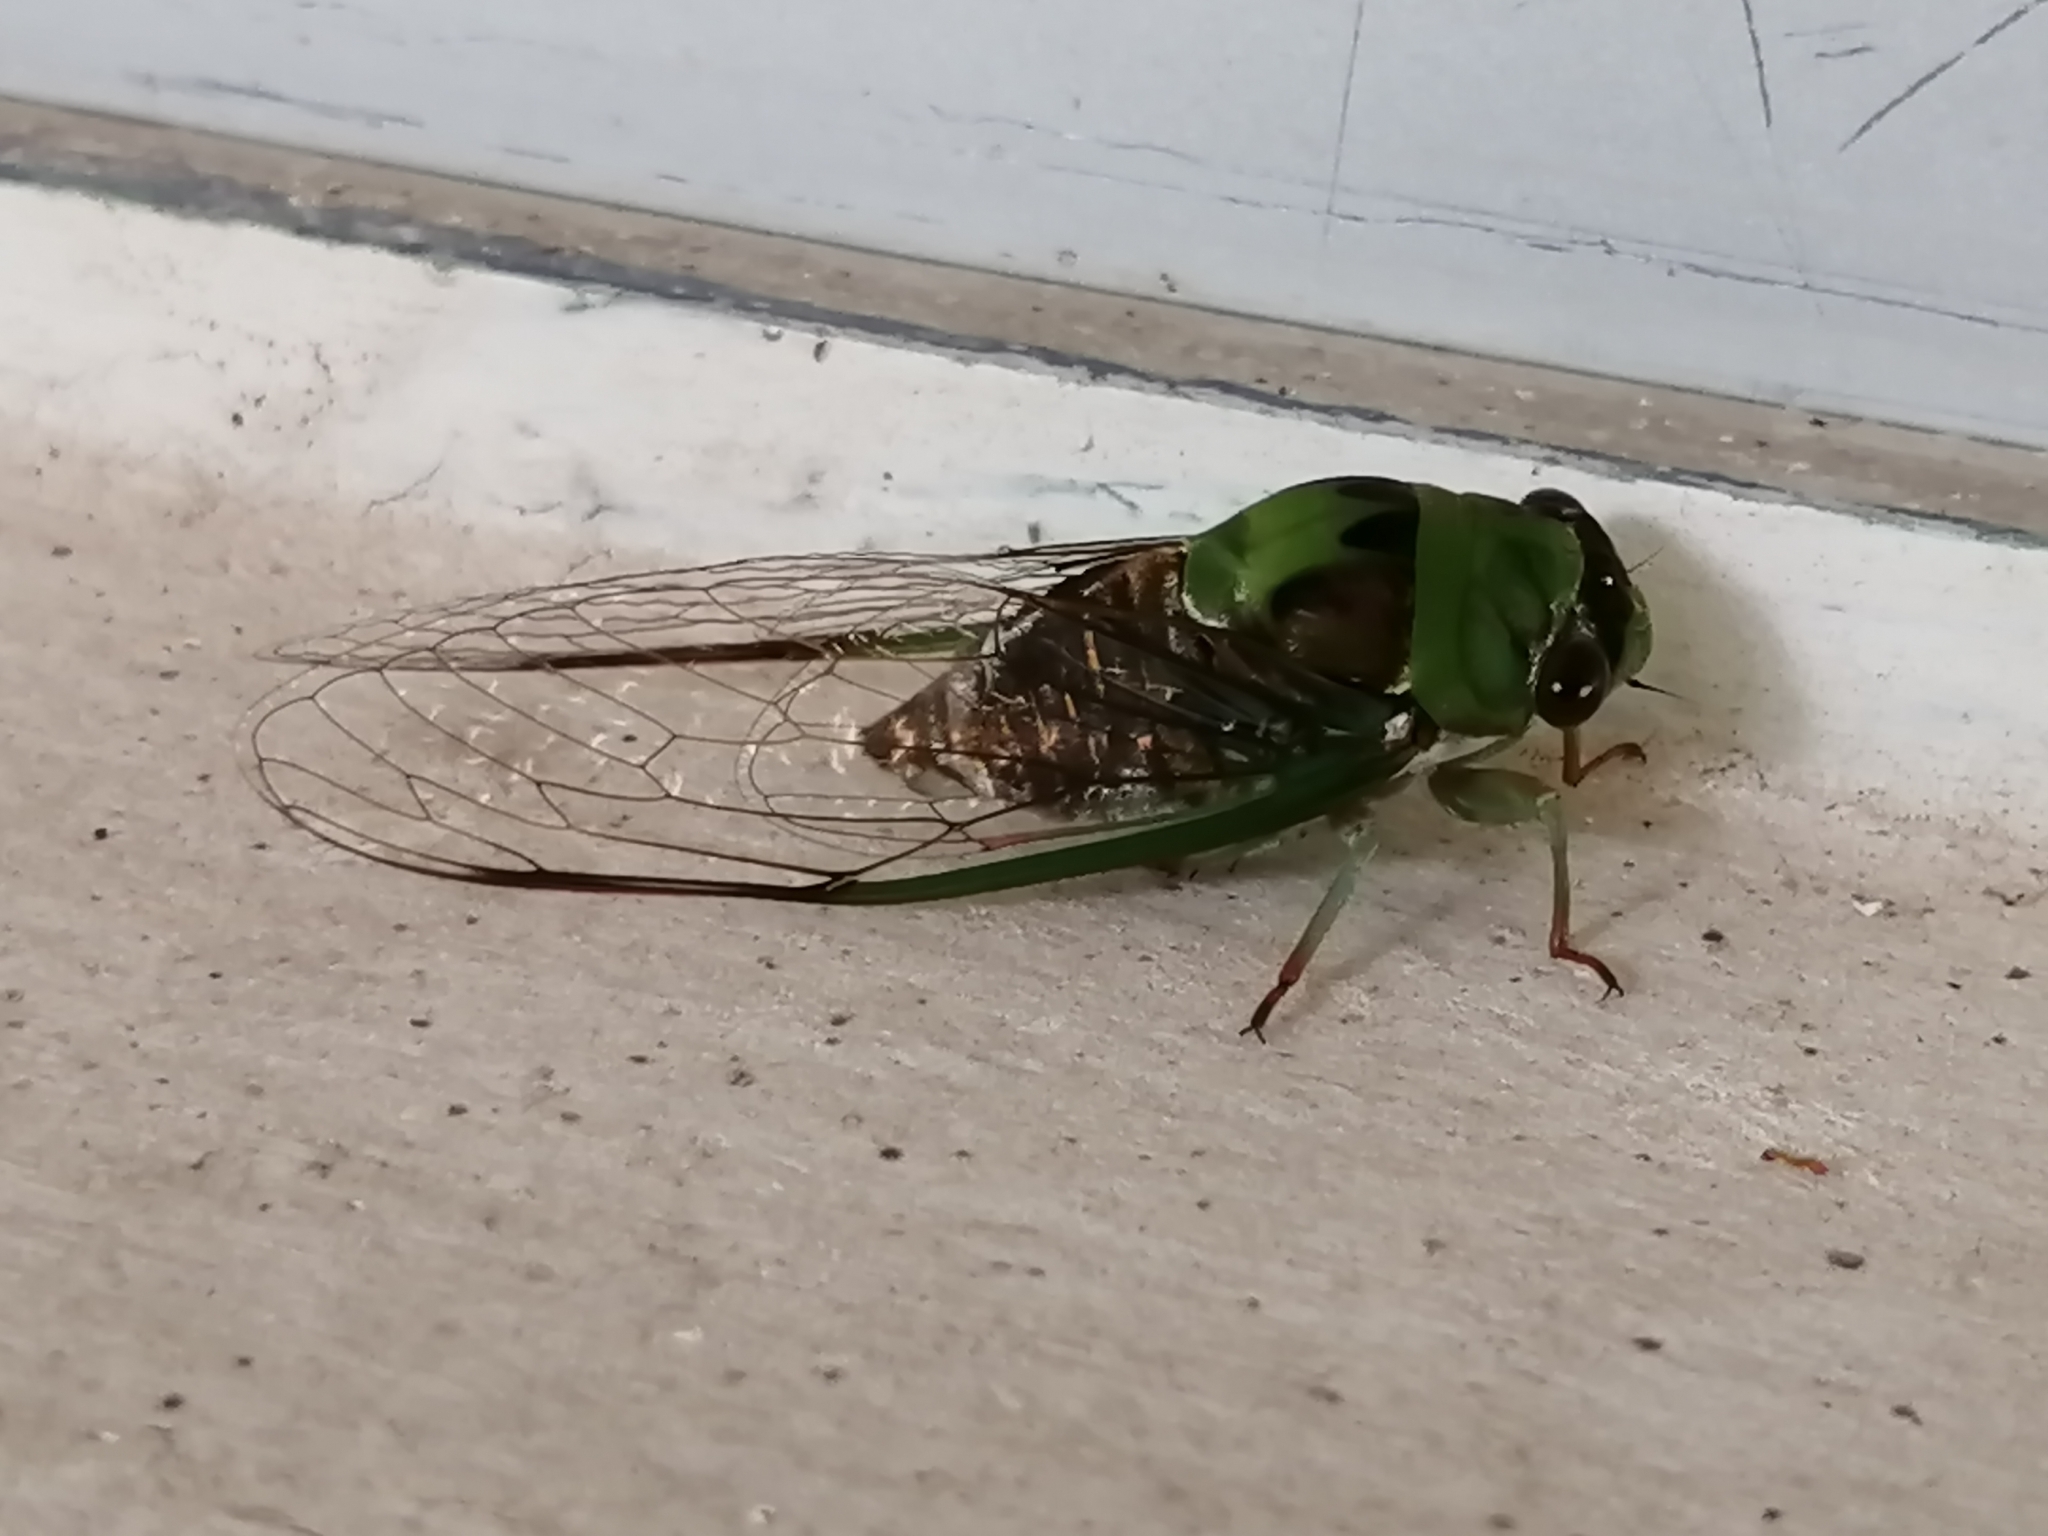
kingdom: Animalia
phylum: Arthropoda
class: Insecta
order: Hemiptera
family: Cicadidae
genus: Diceroprocta
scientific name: Diceroprocta oleacea
